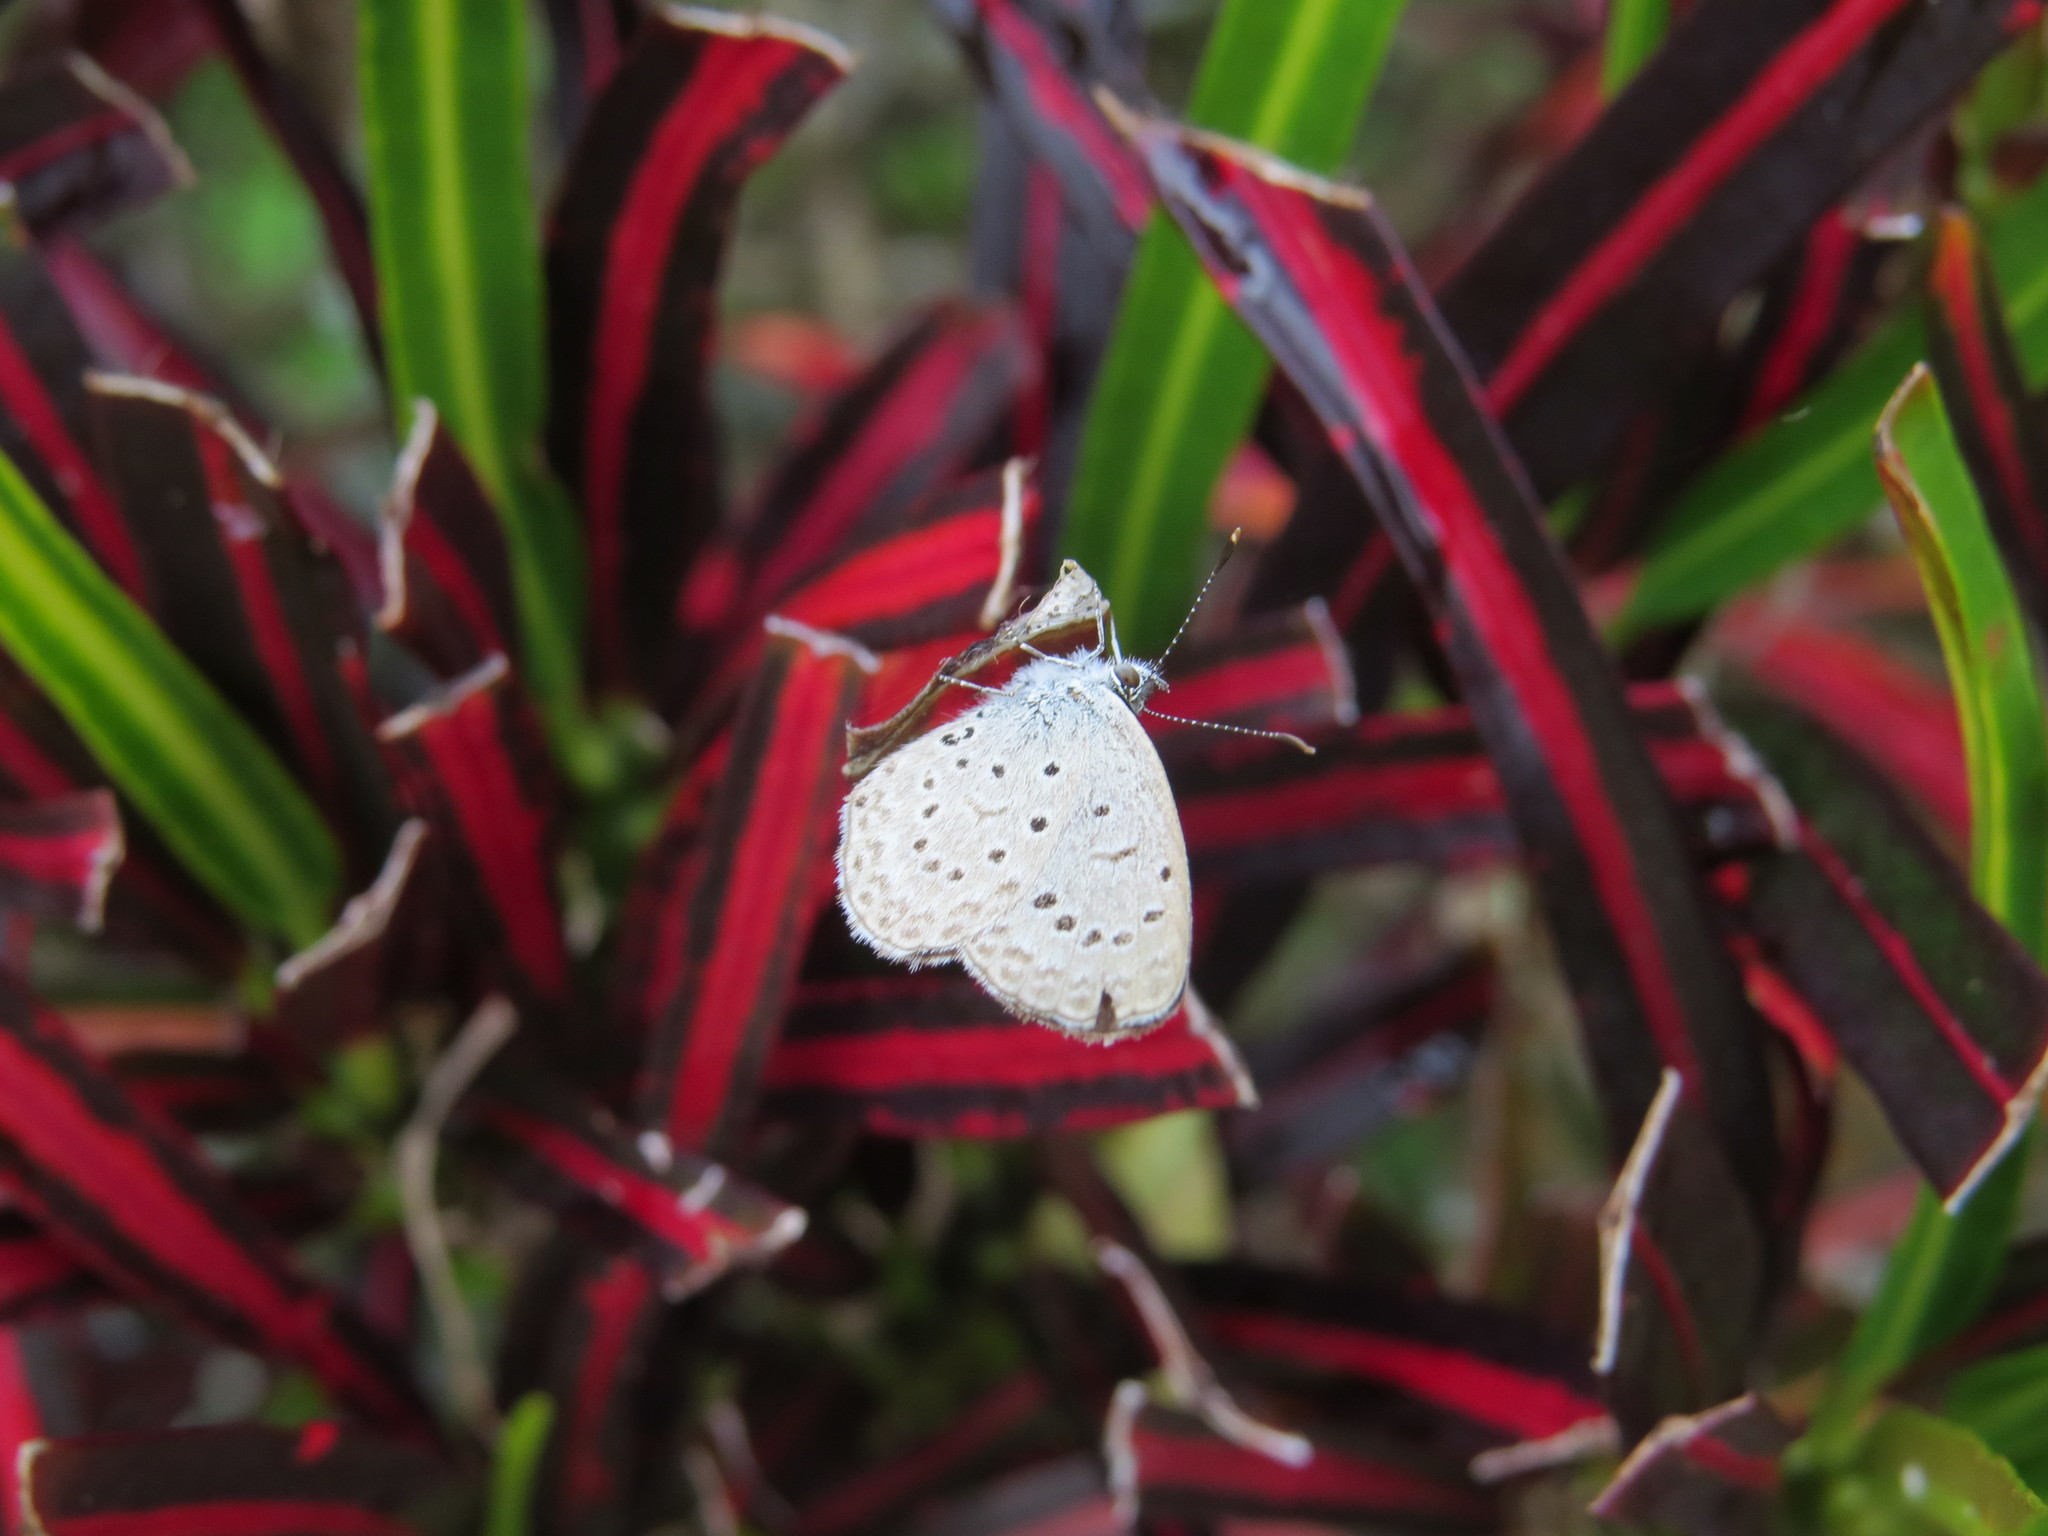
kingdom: Animalia
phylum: Arthropoda
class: Insecta
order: Lepidoptera
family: Lycaenidae
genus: Zizeeria
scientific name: Zizeeria knysna
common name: African grass blue
